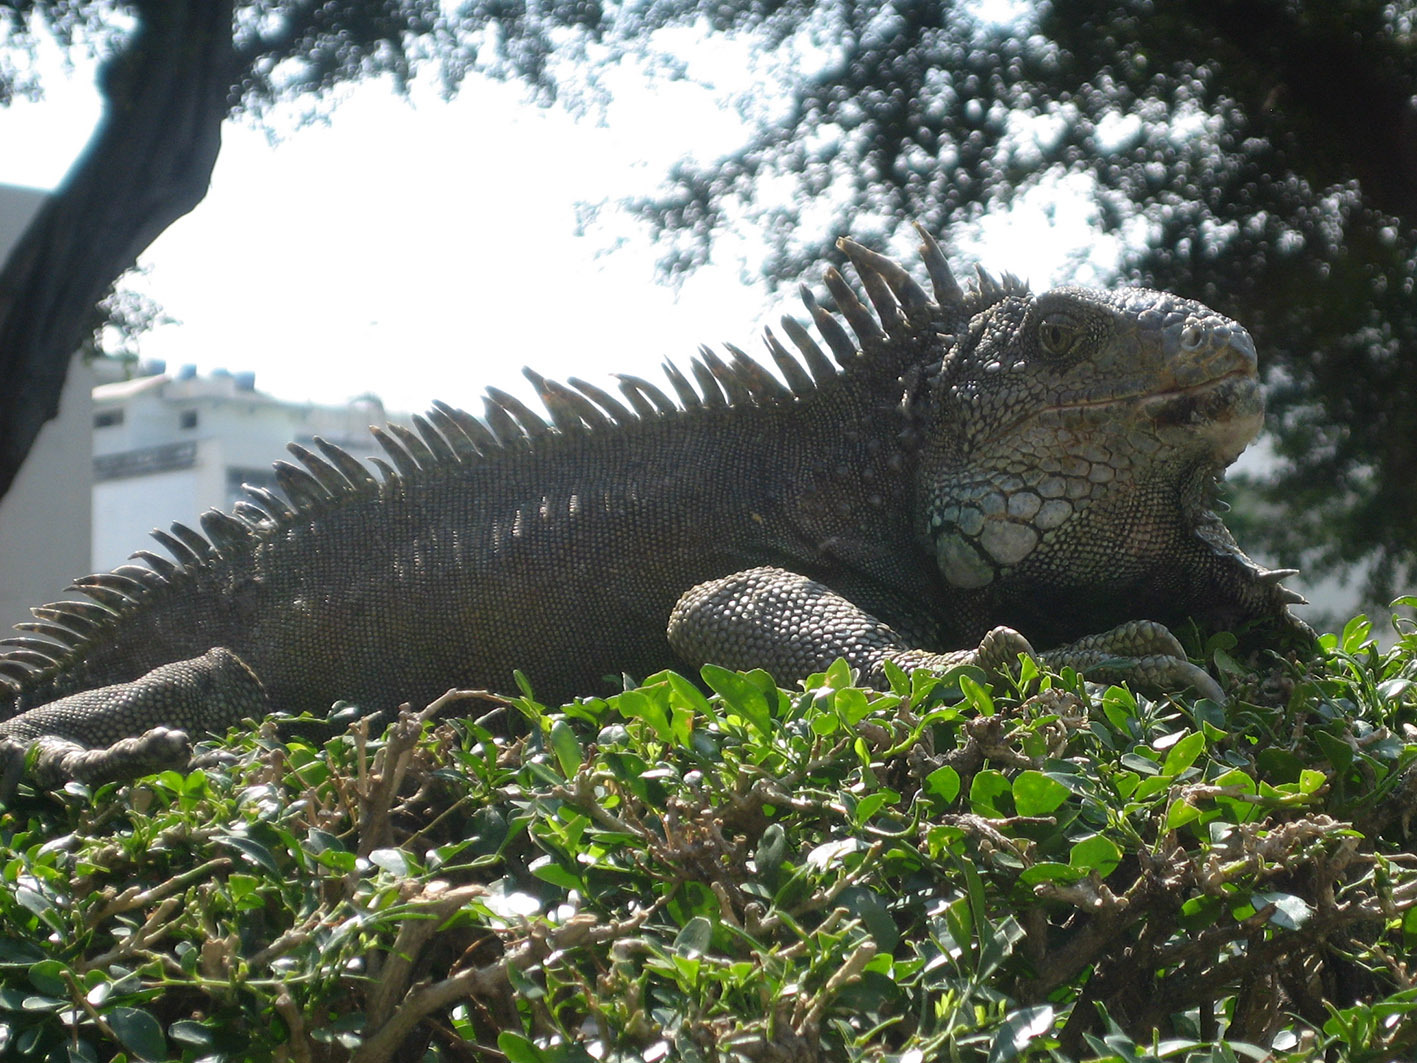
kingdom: Animalia
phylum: Chordata
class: Squamata
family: Iguanidae
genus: Iguana
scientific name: Iguana iguana
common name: Green iguana
